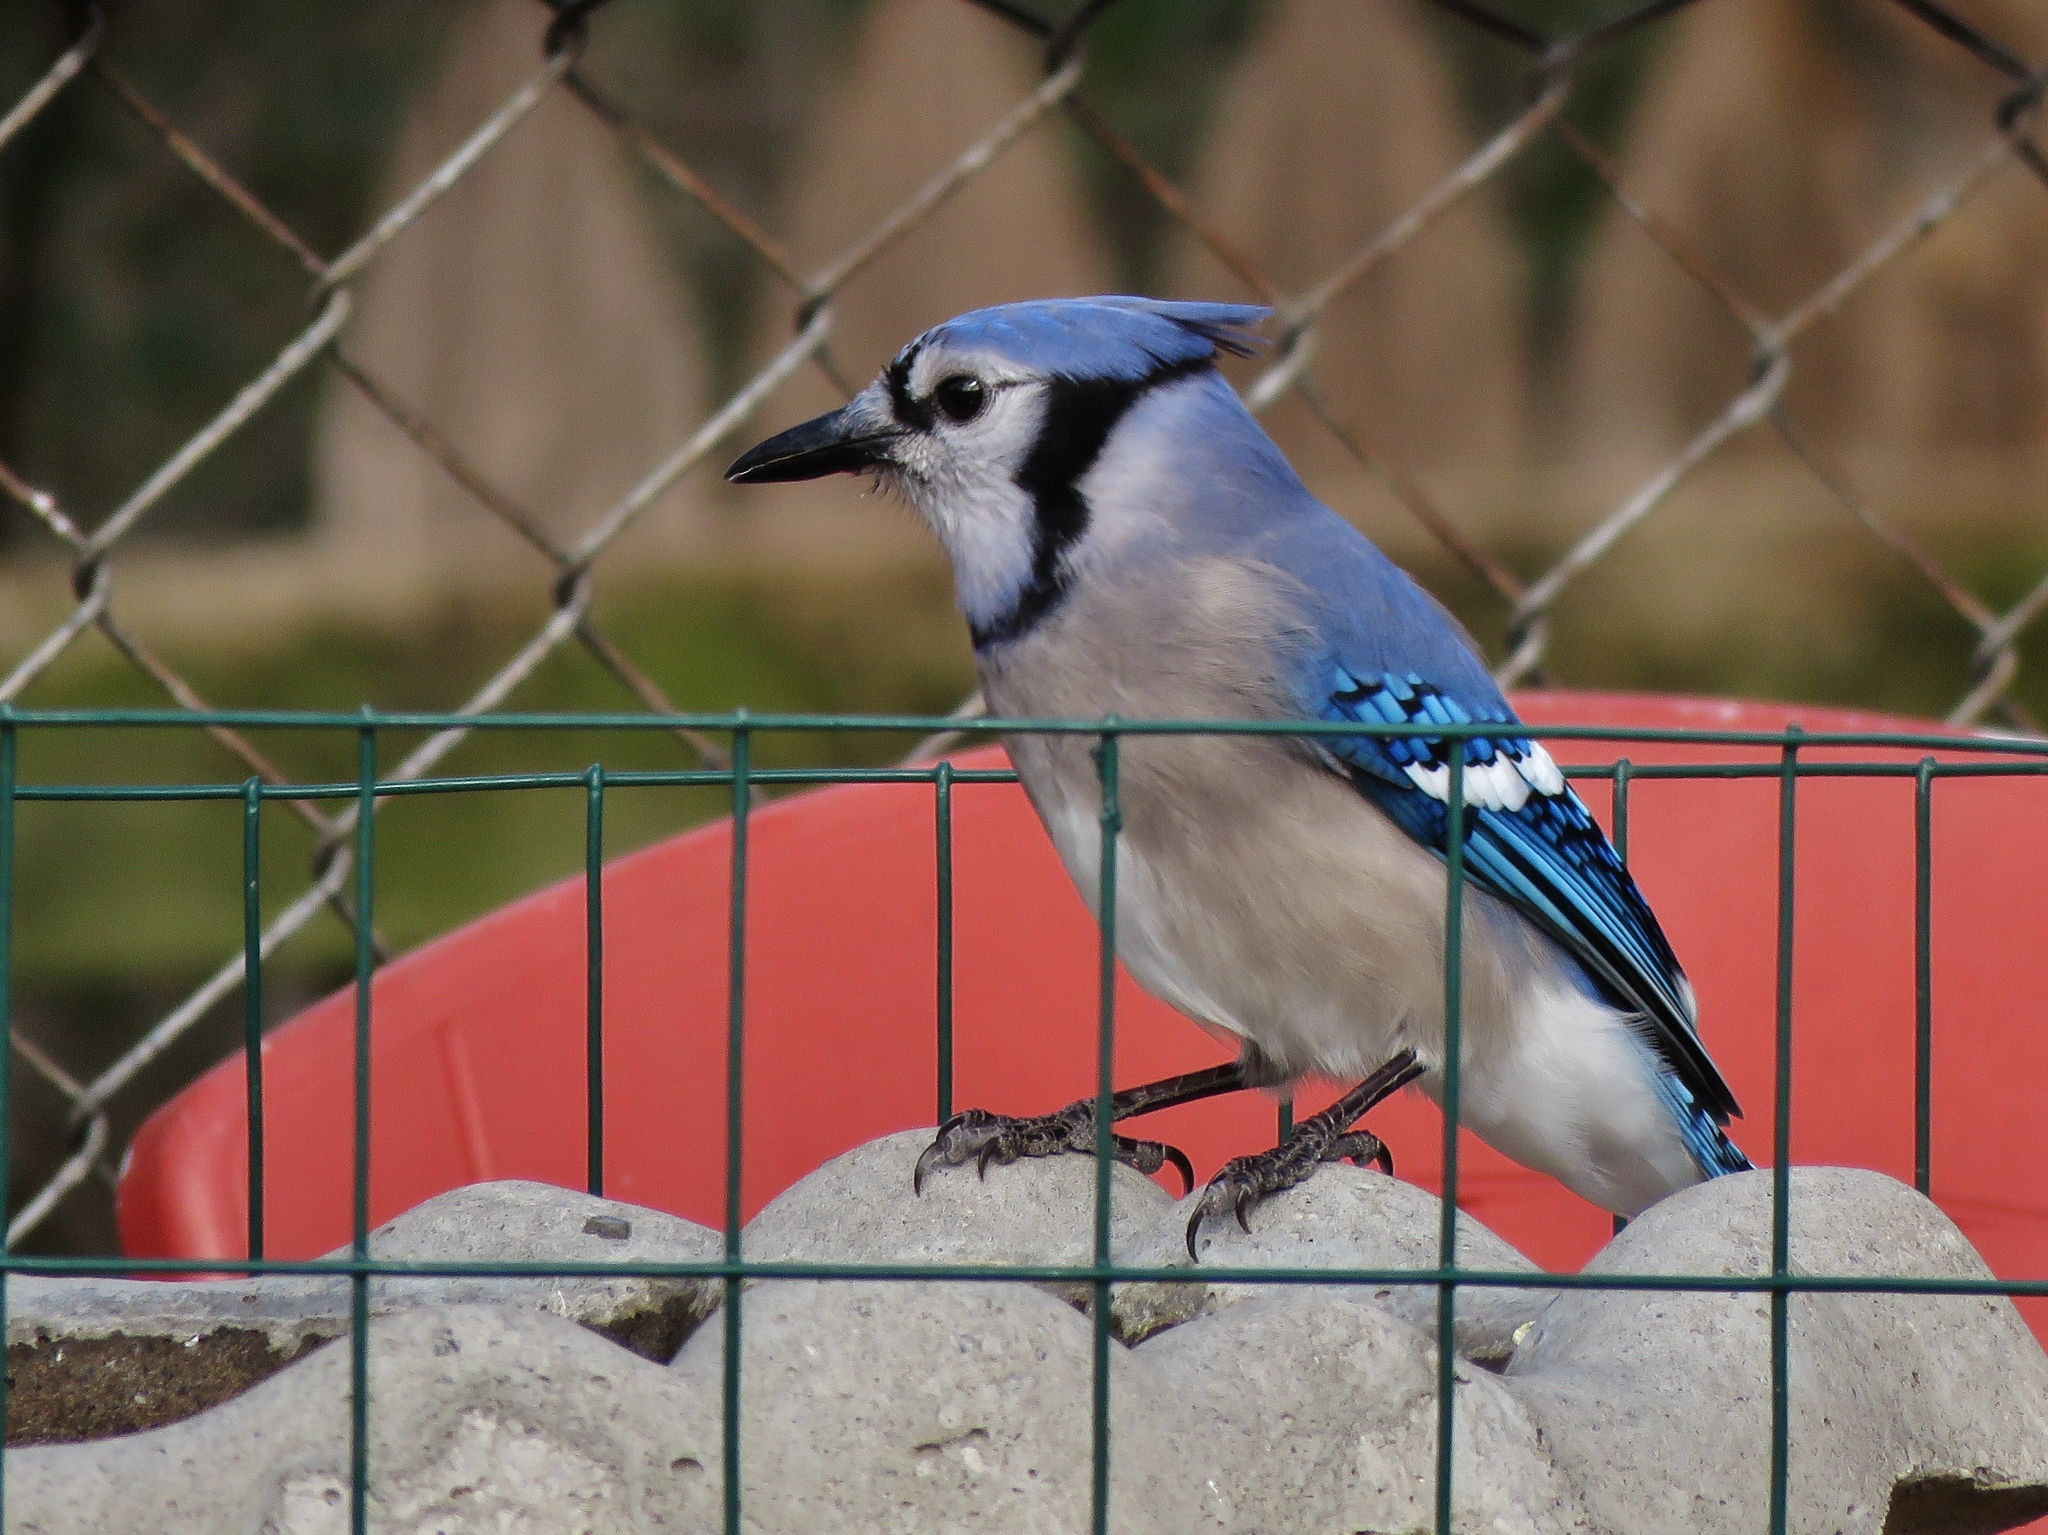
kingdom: Animalia
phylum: Chordata
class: Aves
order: Passeriformes
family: Corvidae
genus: Cyanocitta
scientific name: Cyanocitta cristata
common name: Blue jay
